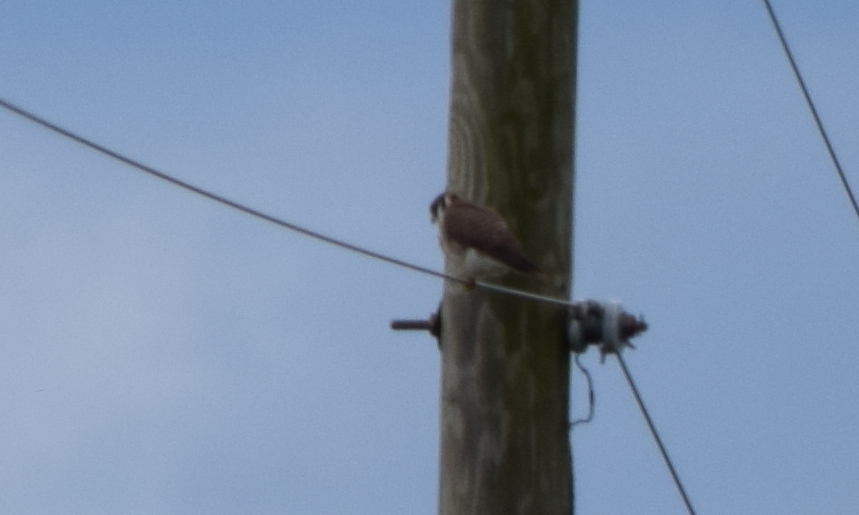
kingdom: Animalia
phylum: Chordata
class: Aves
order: Falconiformes
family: Falconidae
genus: Falco
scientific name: Falco sparverius
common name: American kestrel
